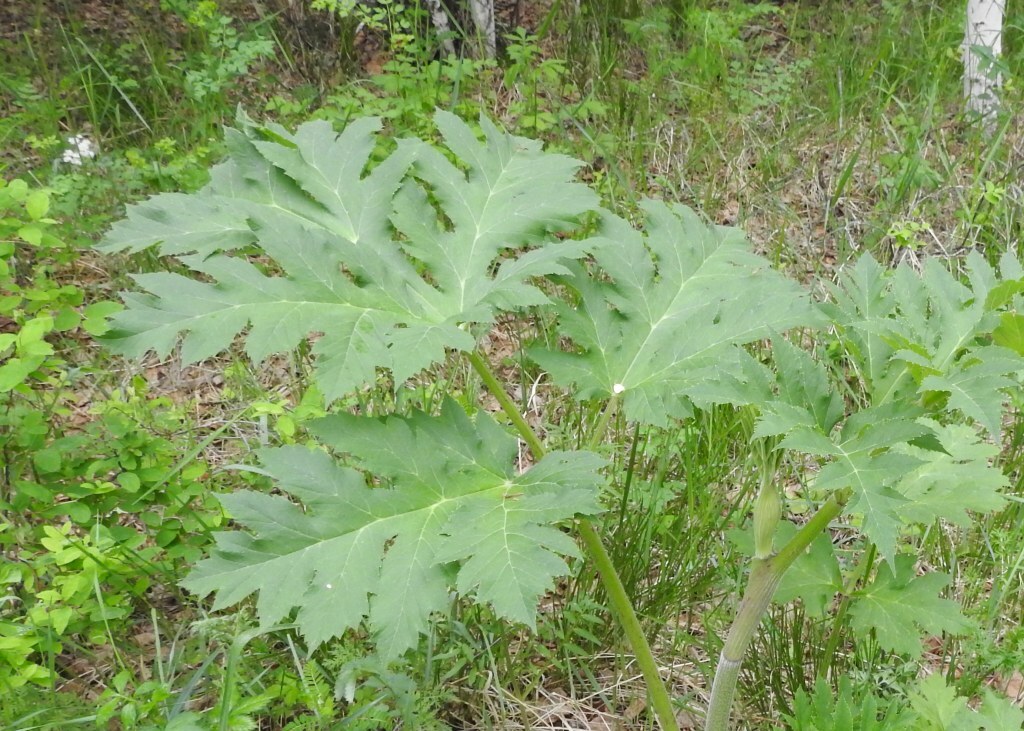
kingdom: Plantae
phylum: Tracheophyta
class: Magnoliopsida
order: Apiales
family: Apiaceae
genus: Heracleum
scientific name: Heracleum dissectum
